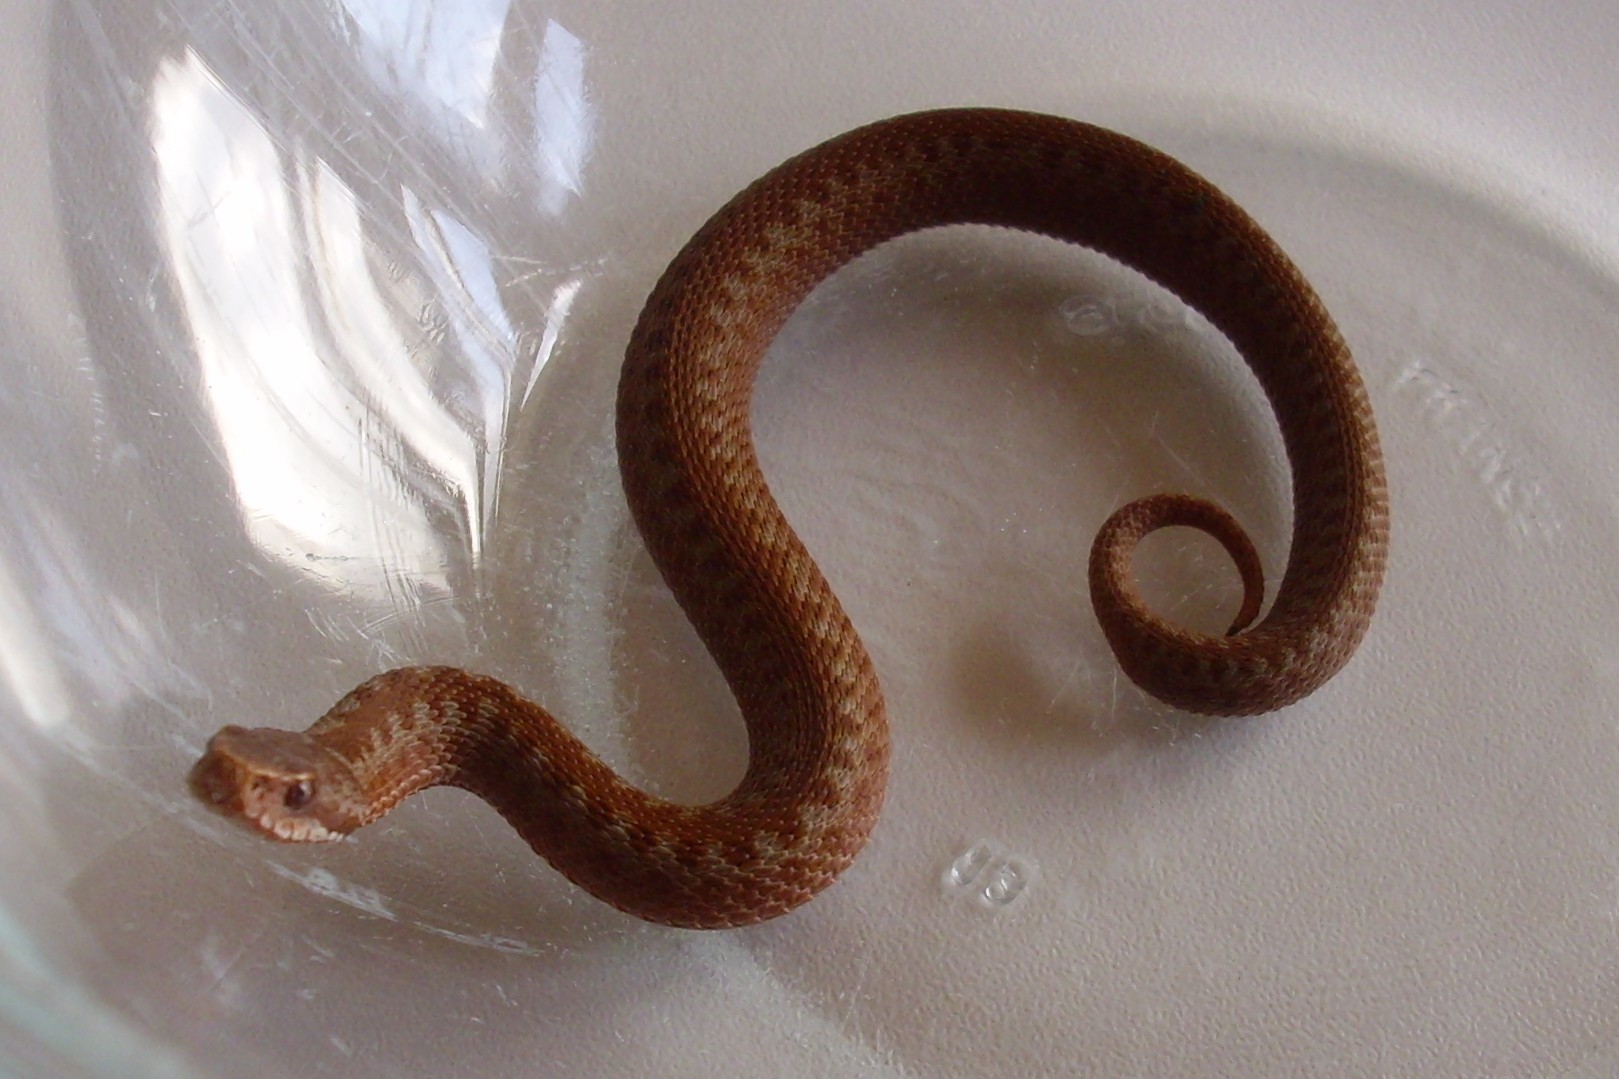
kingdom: Animalia
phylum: Chordata
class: Squamata
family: Viperidae
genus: Vipera
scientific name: Vipera berus
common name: Adder
